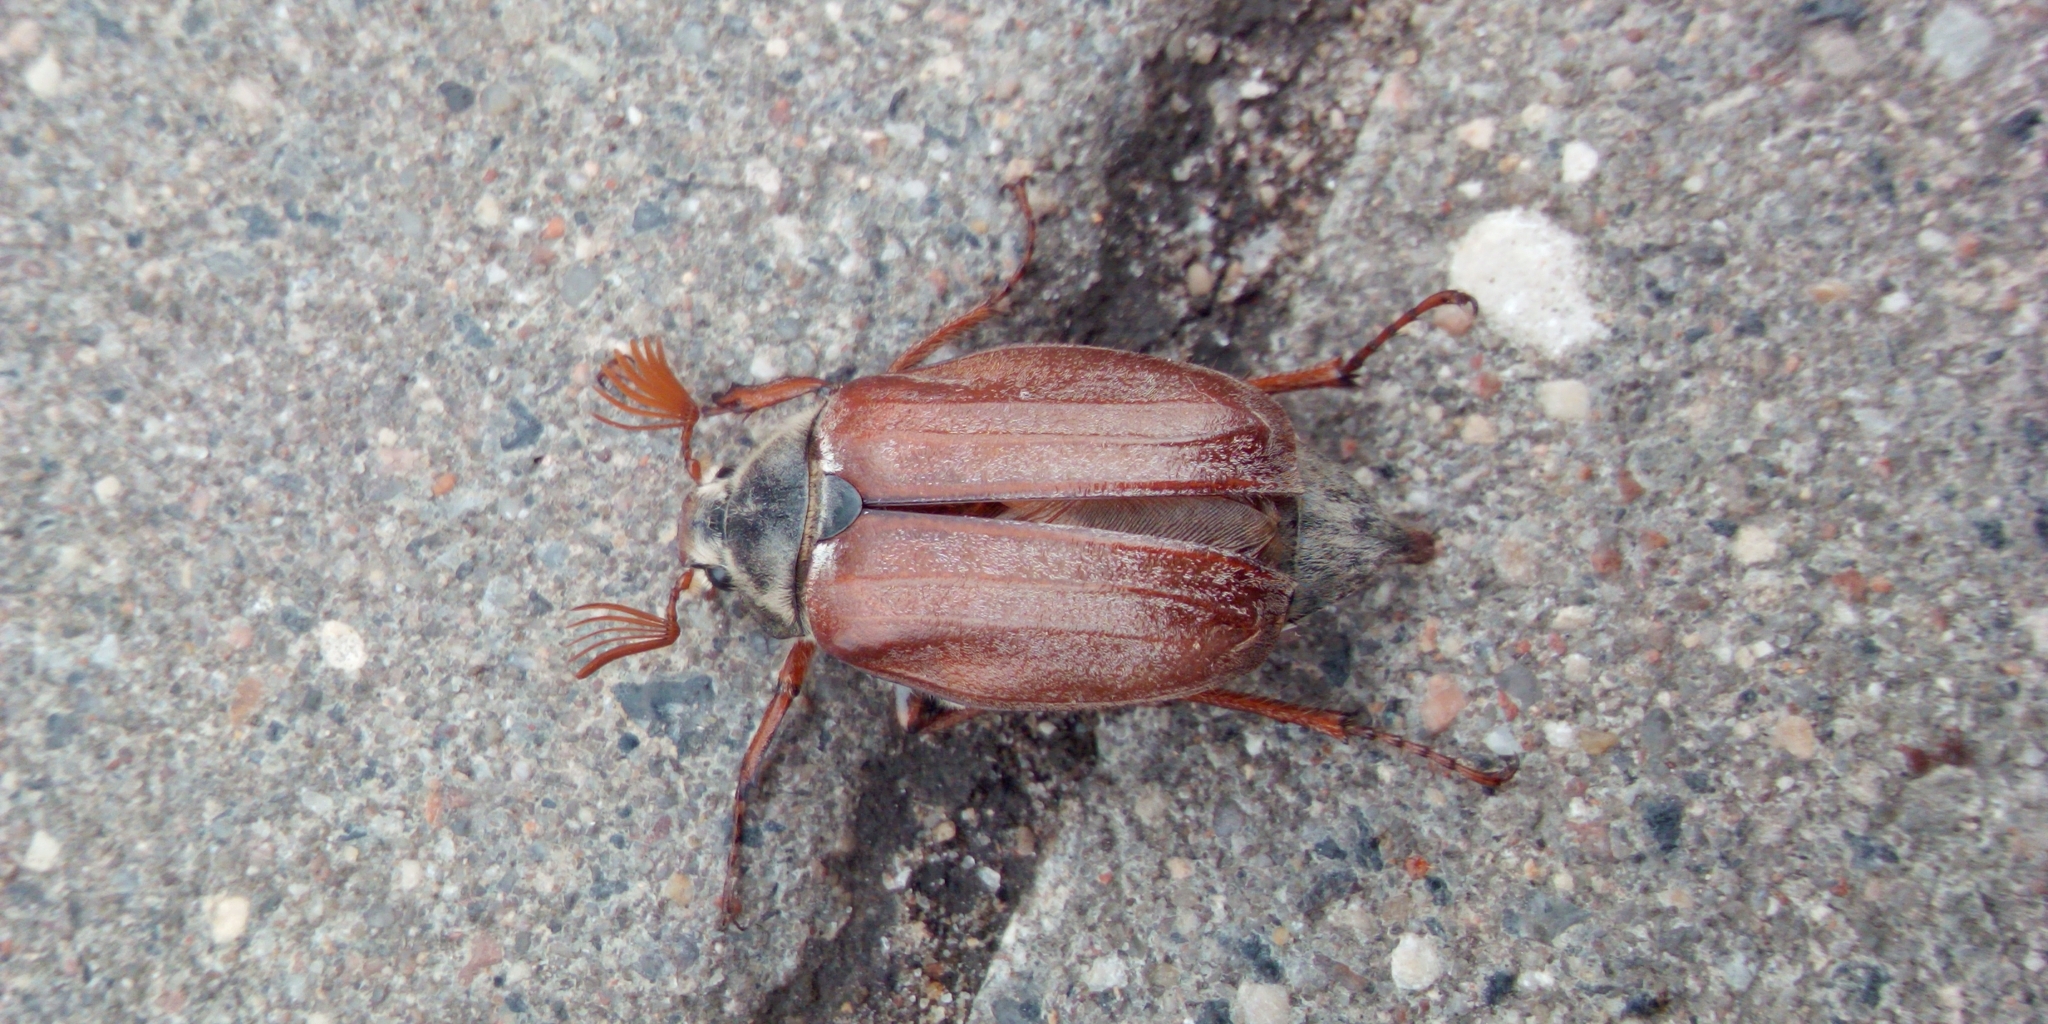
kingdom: Animalia
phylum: Arthropoda
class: Insecta
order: Coleoptera
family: Scarabaeidae
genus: Melolontha
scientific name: Melolontha melolontha
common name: Cockchafer maybeetle
